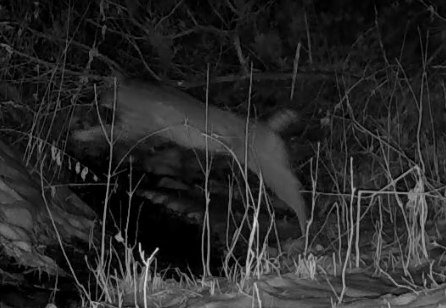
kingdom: Animalia
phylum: Chordata
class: Mammalia
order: Carnivora
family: Felidae
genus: Lynx
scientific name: Lynx rufus
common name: Bobcat
